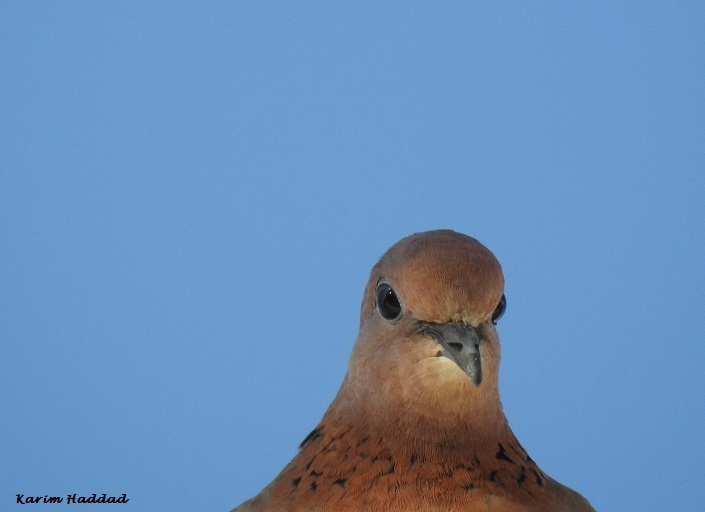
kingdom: Animalia
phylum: Chordata
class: Aves
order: Columbiformes
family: Columbidae
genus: Spilopelia
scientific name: Spilopelia senegalensis
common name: Laughing dove
